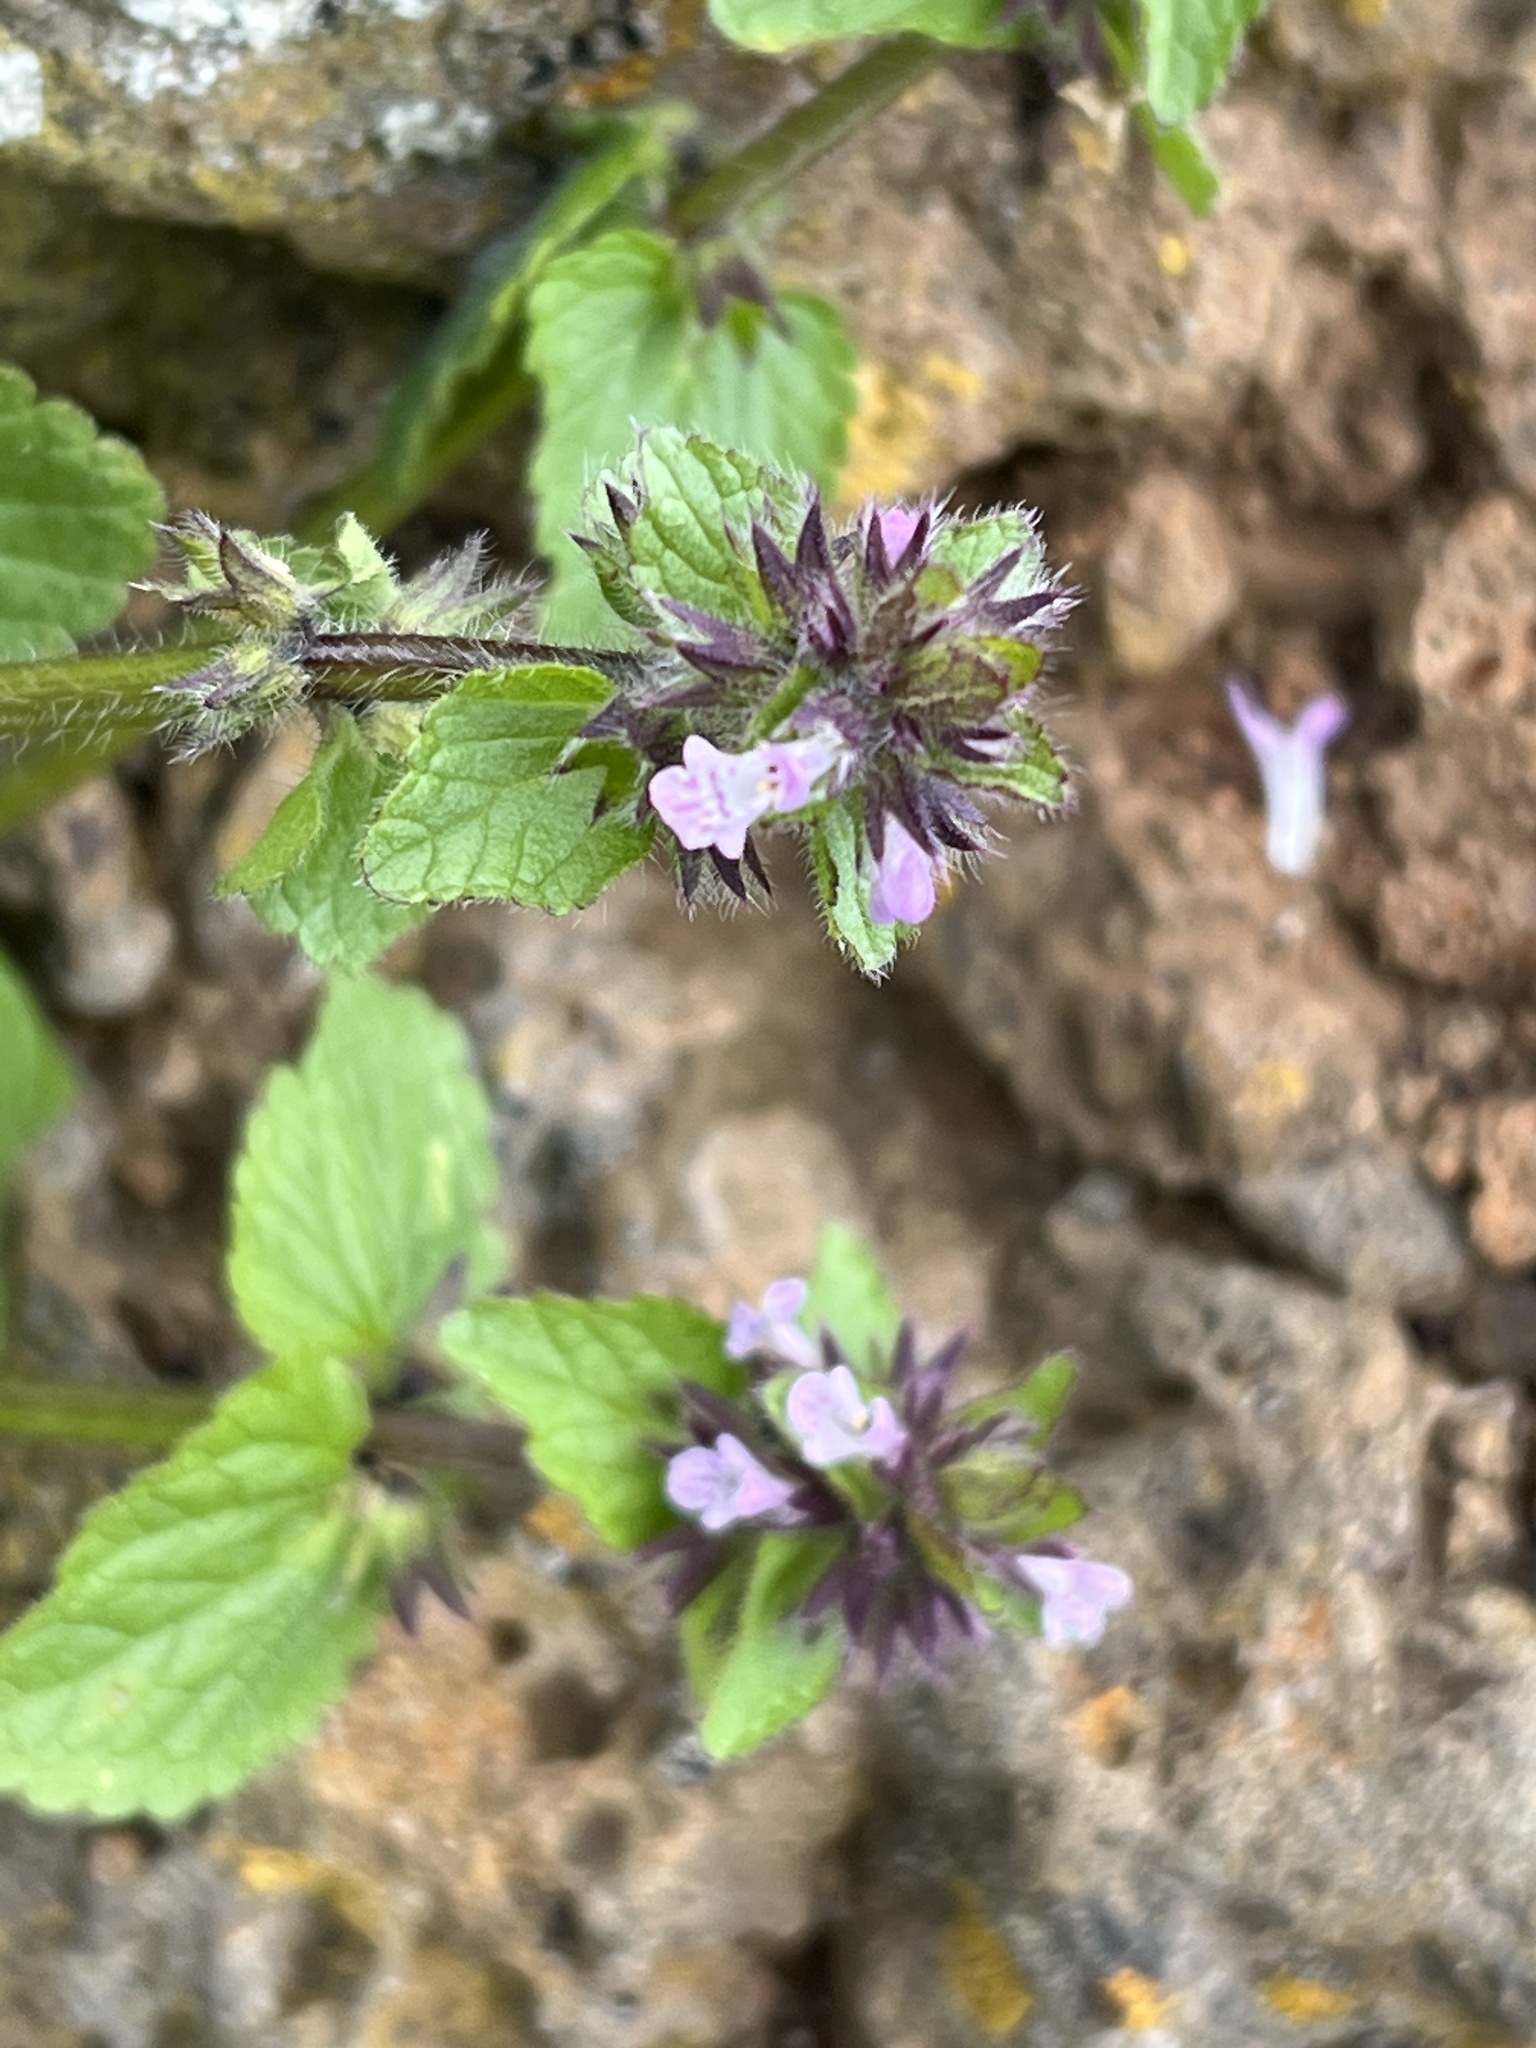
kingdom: Plantae
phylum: Tracheophyta
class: Magnoliopsida
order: Lamiales
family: Lamiaceae
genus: Stachys
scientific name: Stachys arvensis
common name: Field woundwort
